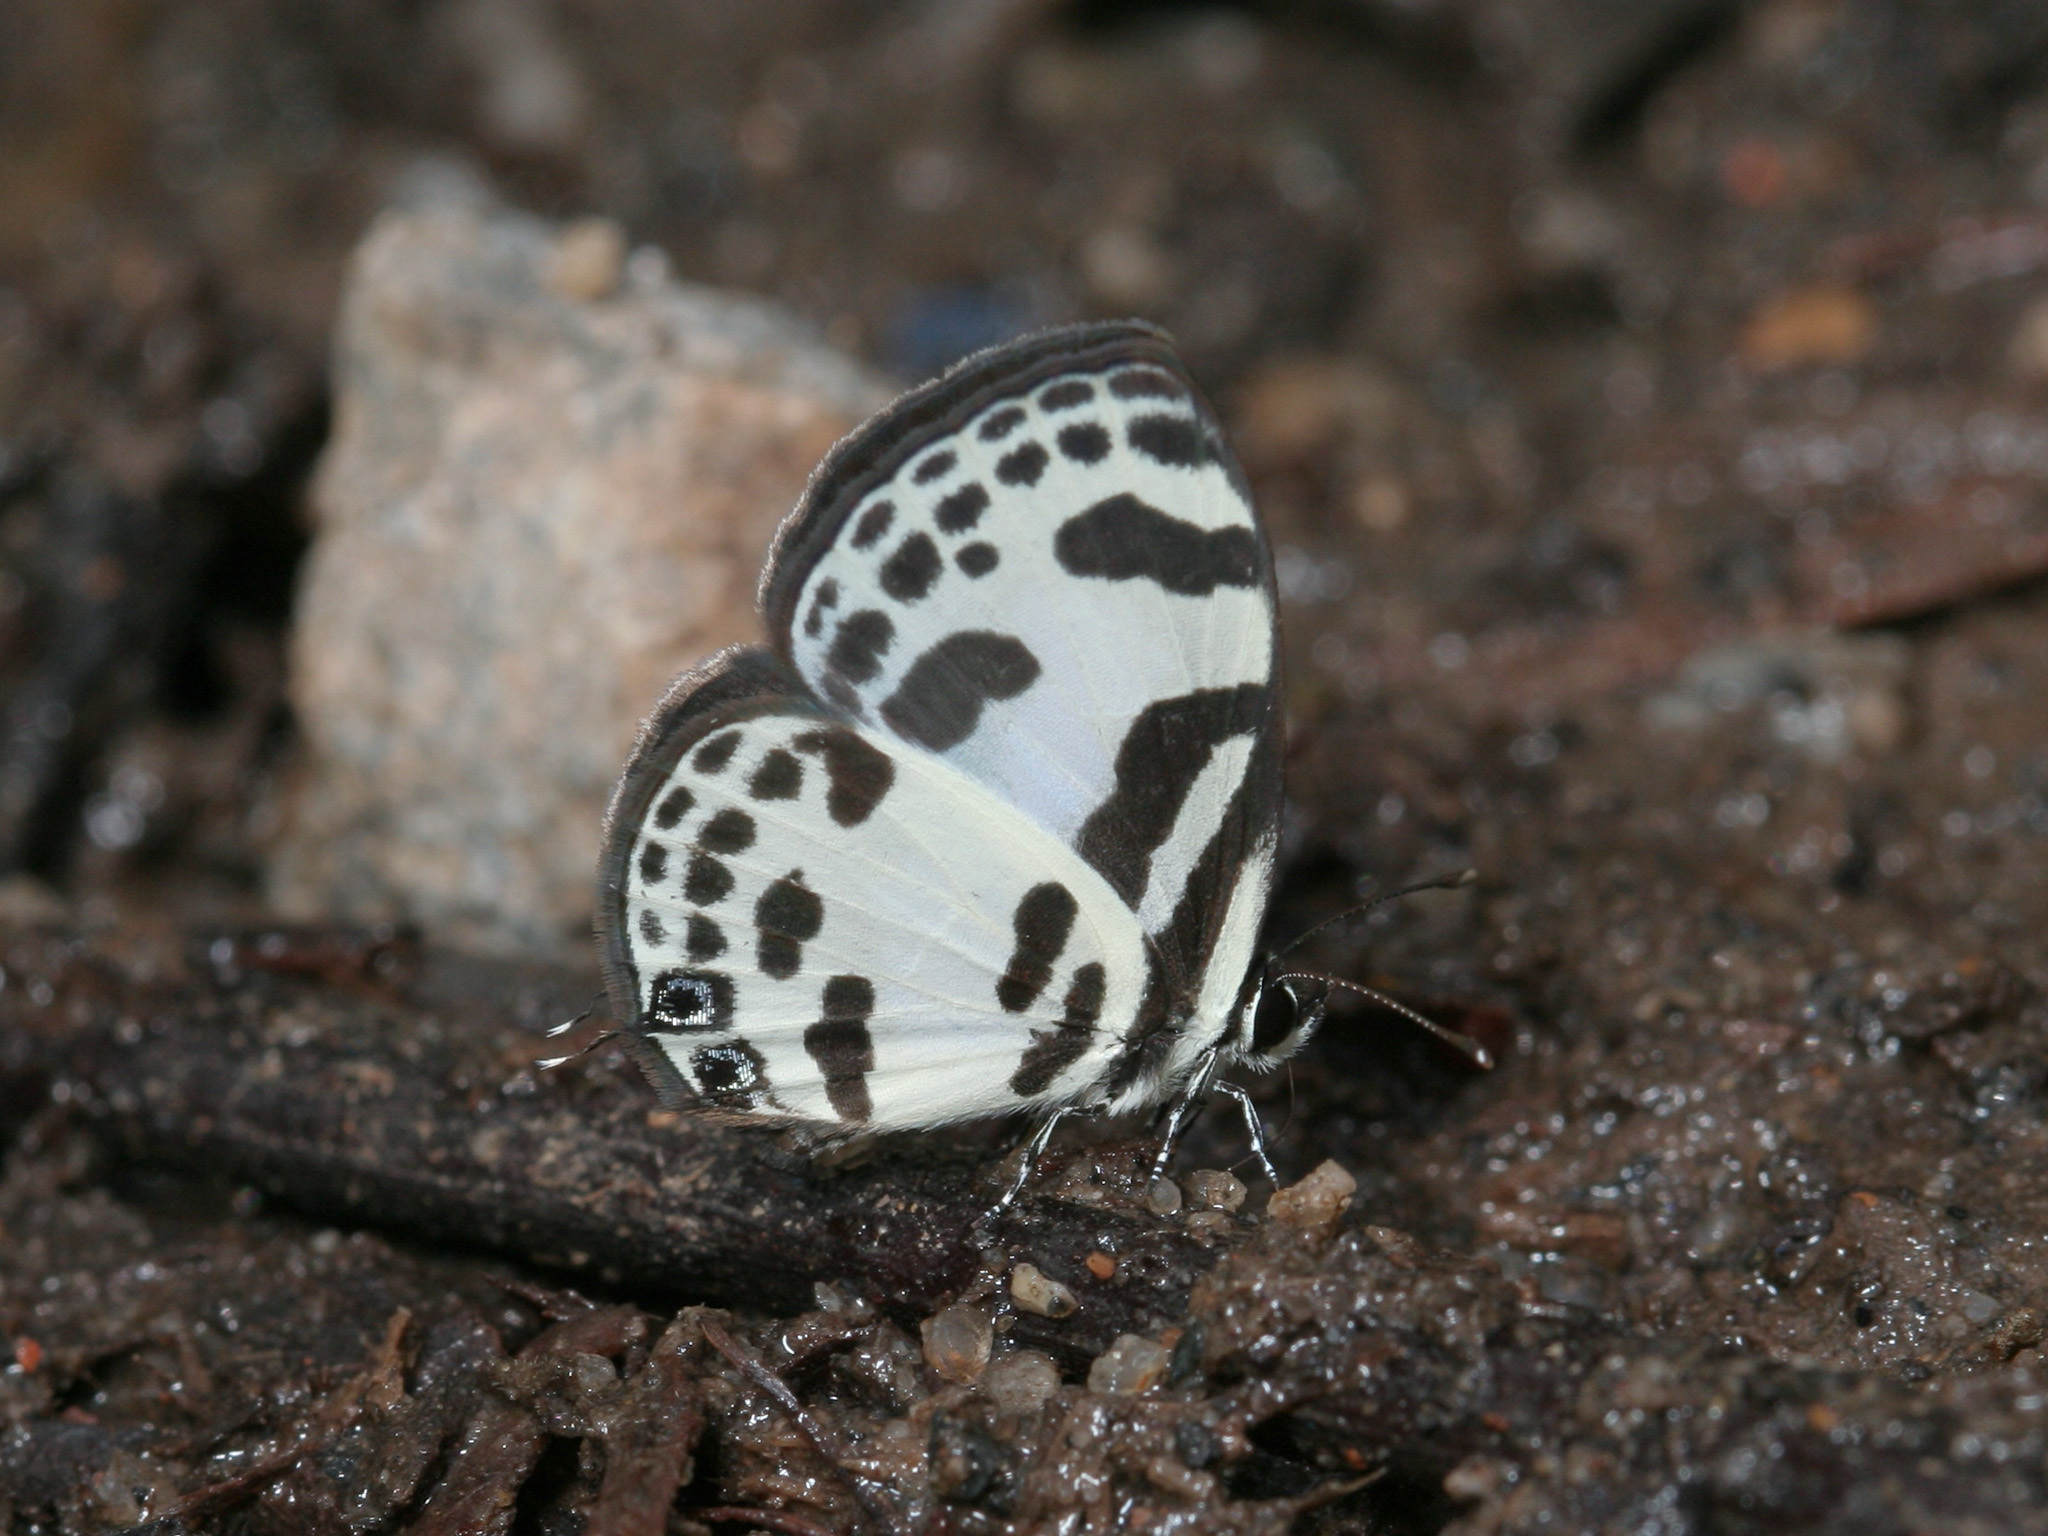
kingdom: Animalia
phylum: Arthropoda
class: Insecta
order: Lepidoptera
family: Lycaenidae
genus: Discolampa
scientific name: Discolampa ethion
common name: Banded blue pierrot
